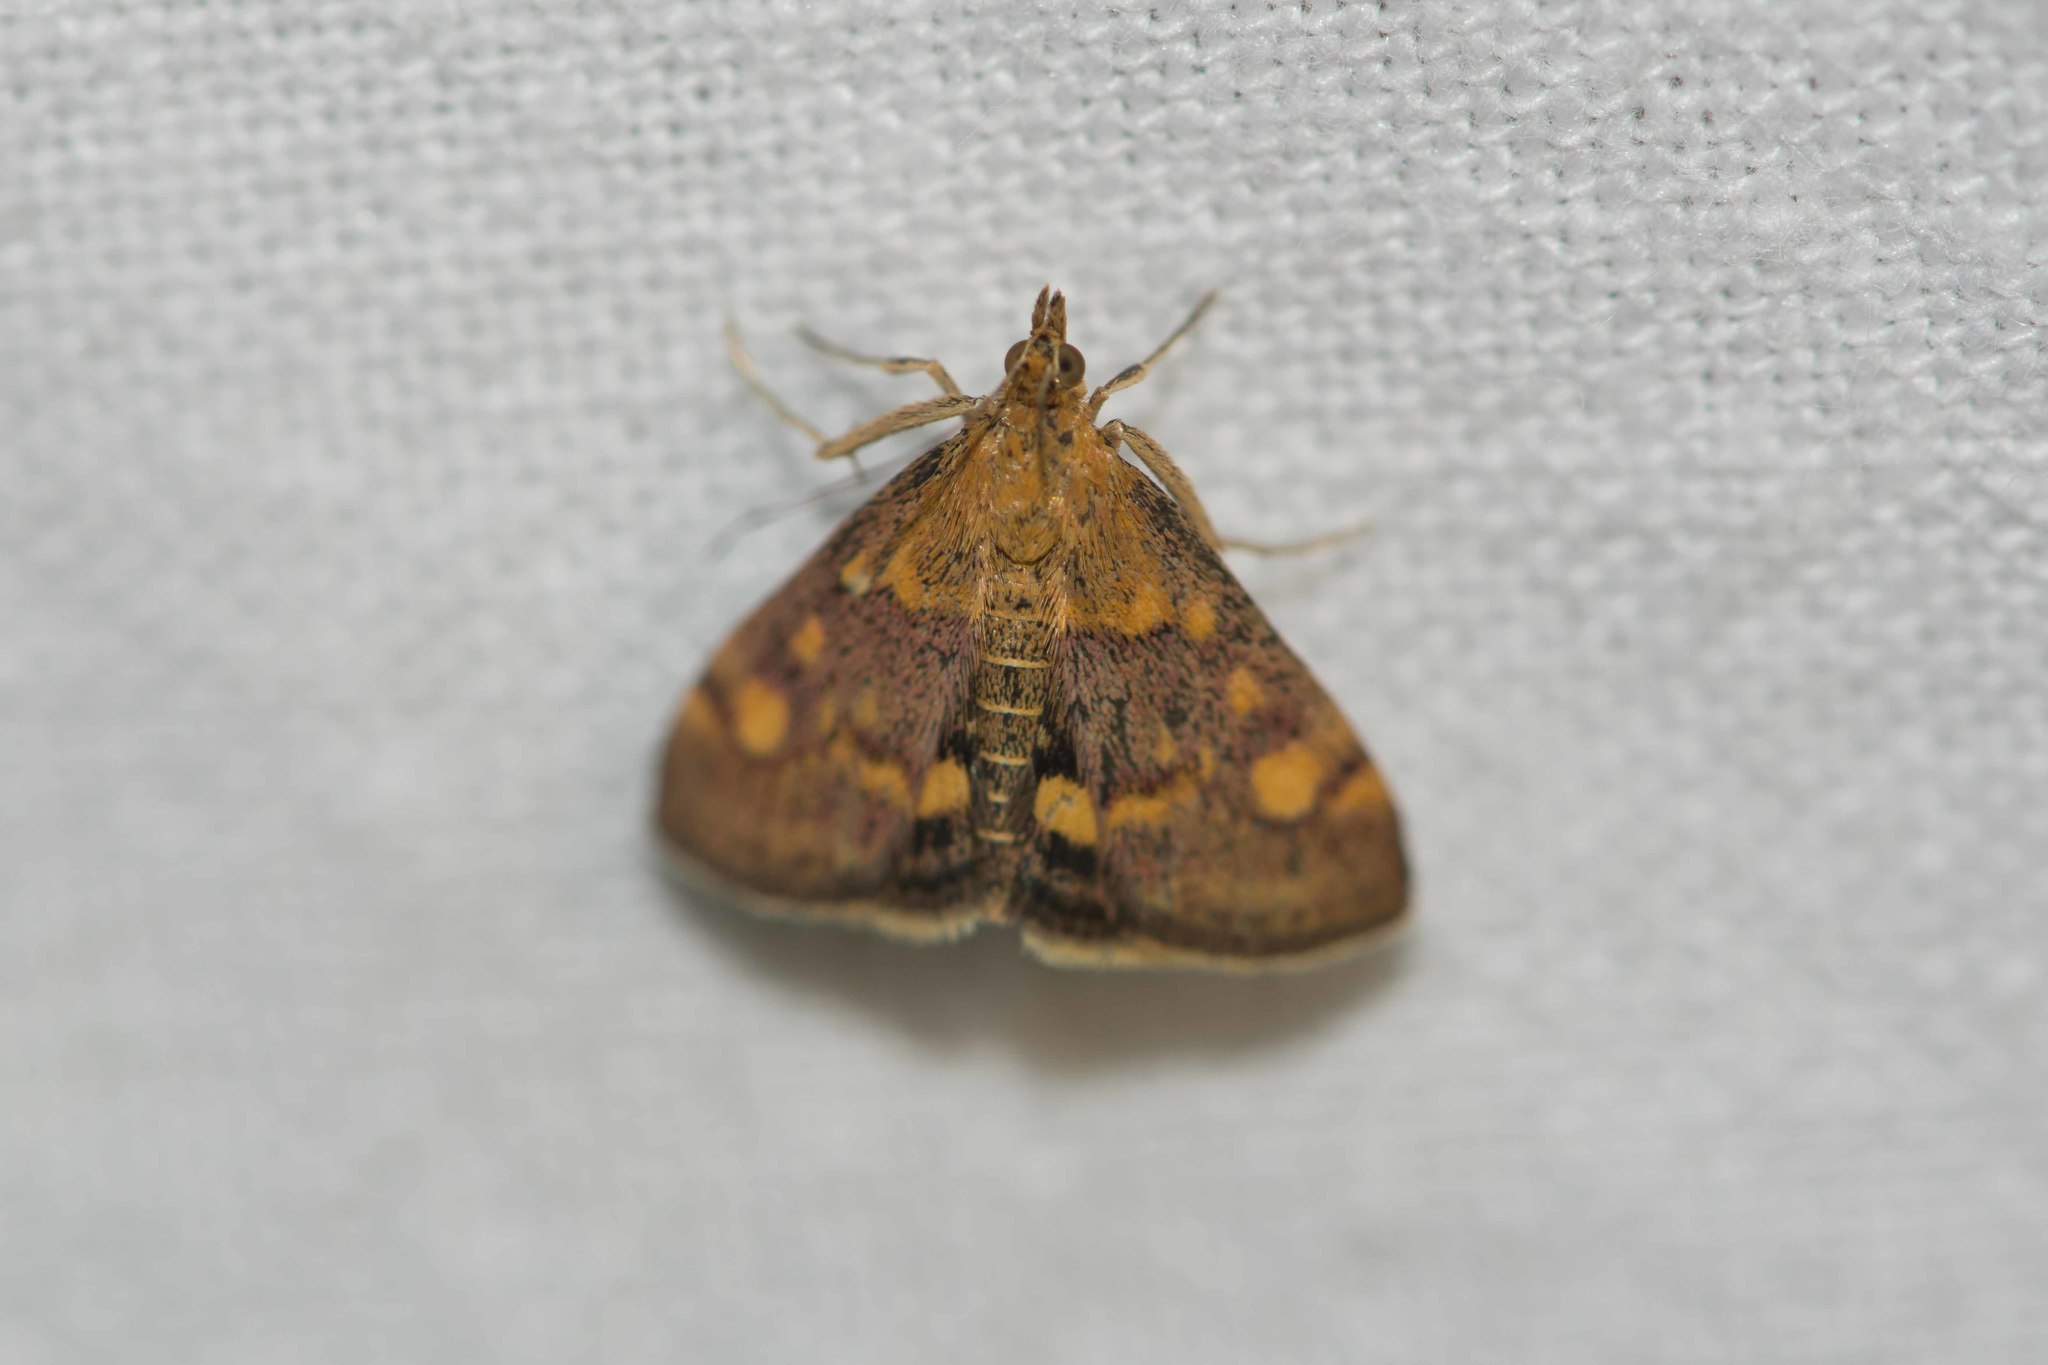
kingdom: Animalia
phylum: Arthropoda
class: Insecta
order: Lepidoptera
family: Crambidae
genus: Pyrausta
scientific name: Pyrausta aurata
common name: Small purple & gold
